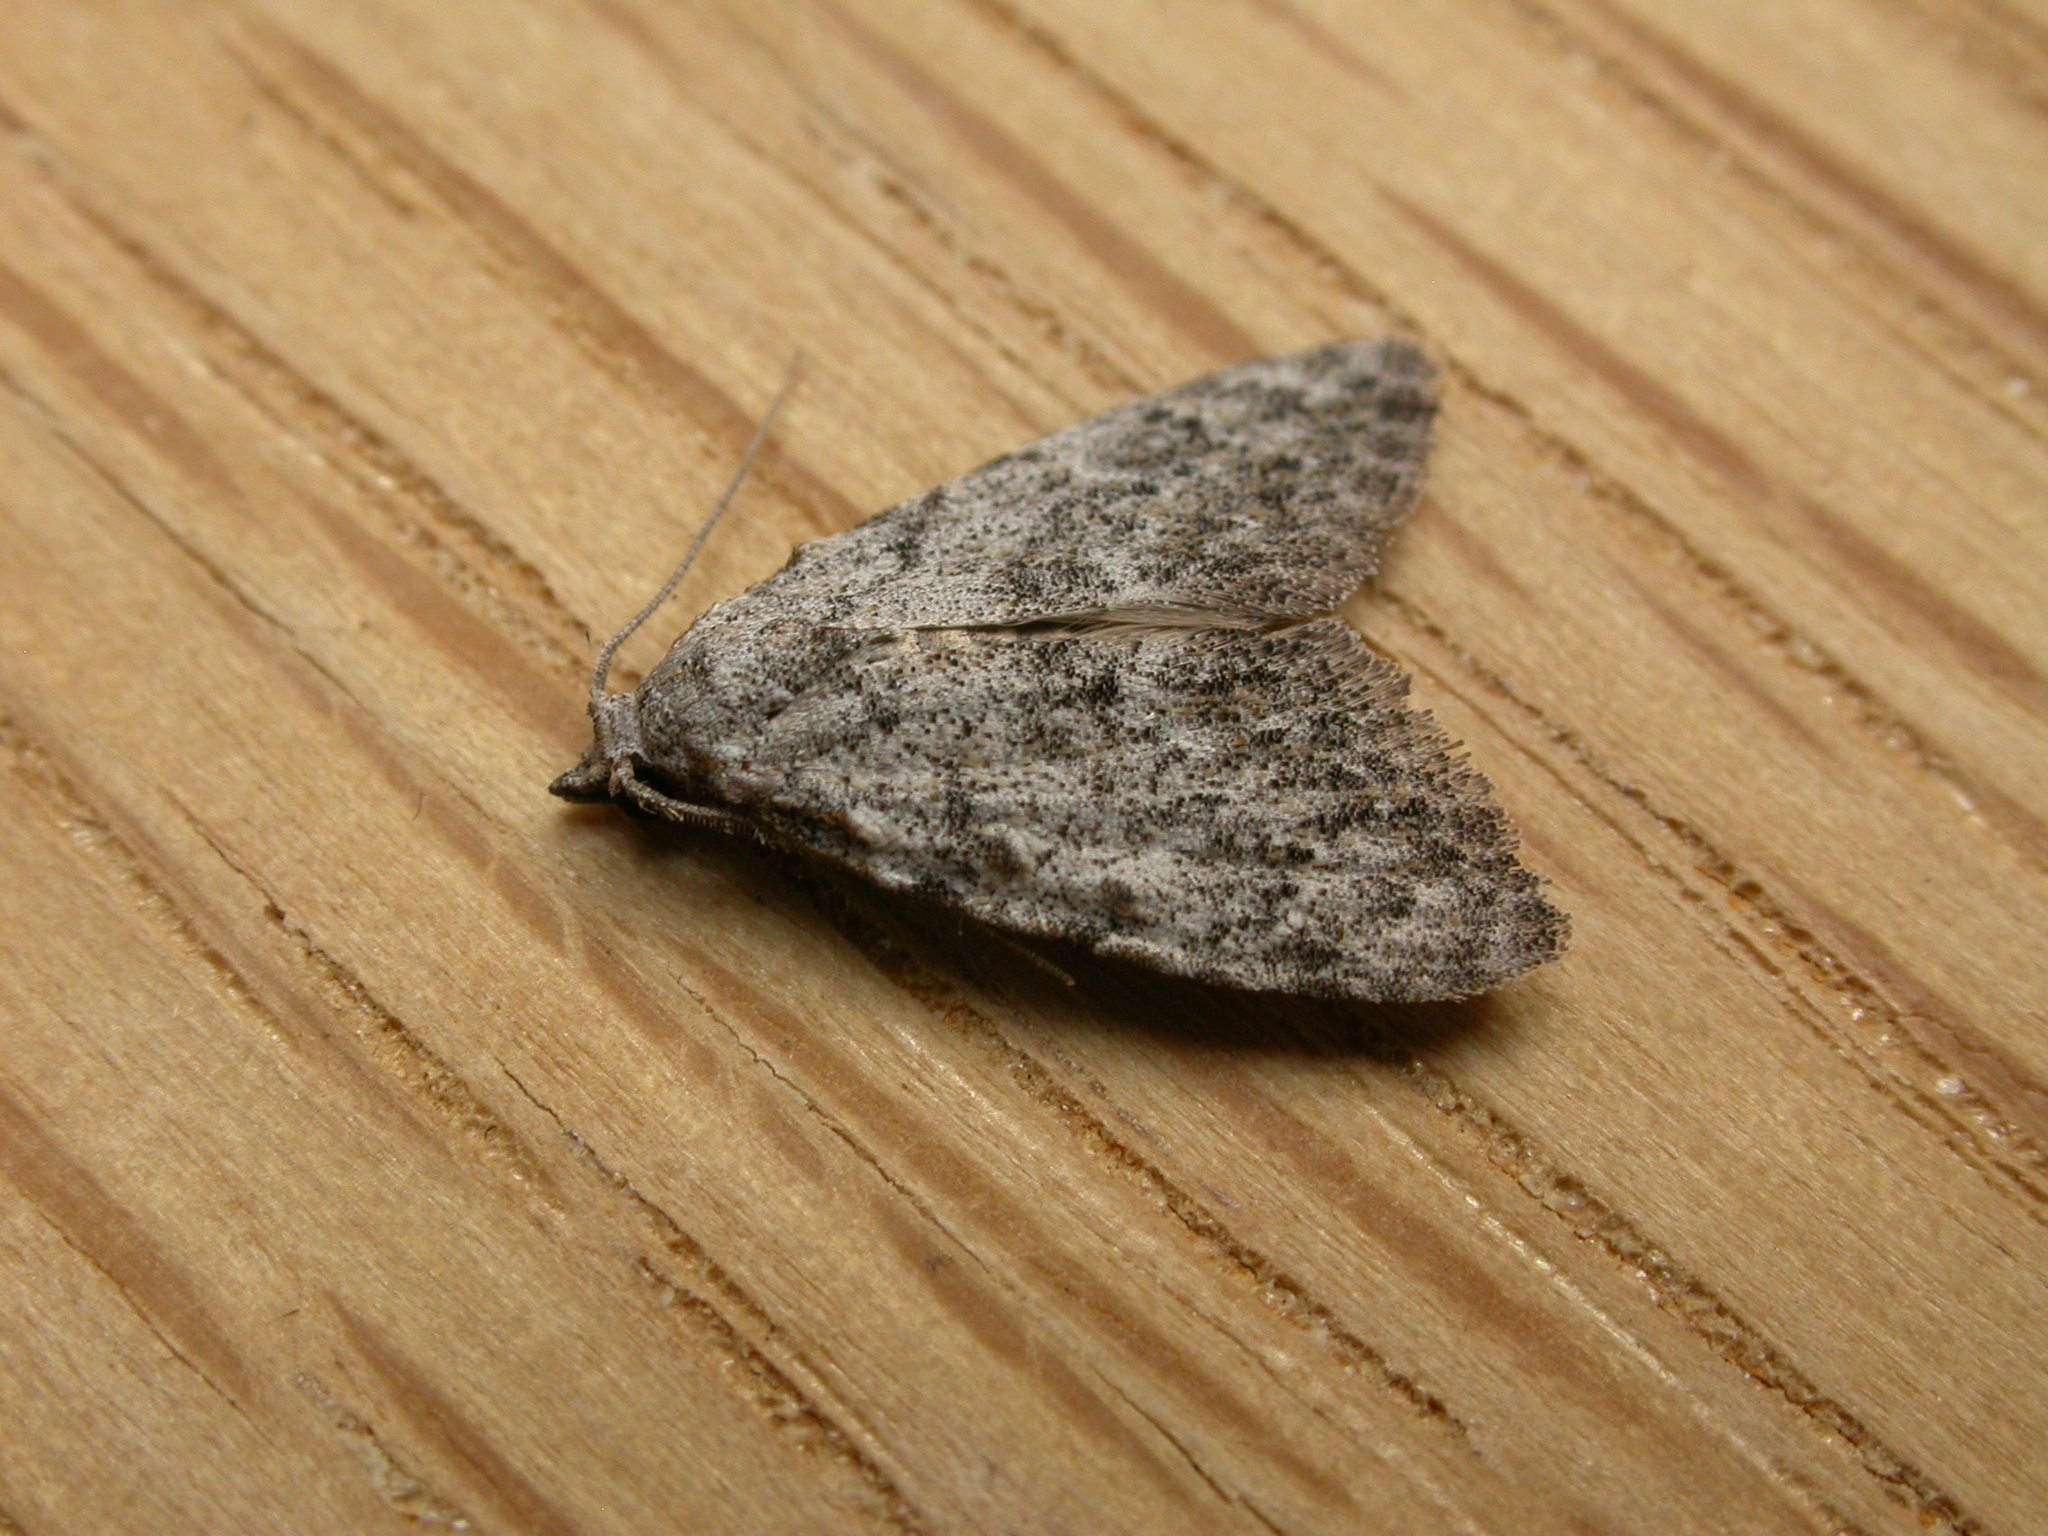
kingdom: Animalia
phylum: Arthropoda
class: Insecta
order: Lepidoptera
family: Nolidae
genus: Nola
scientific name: Nola pleurosema
